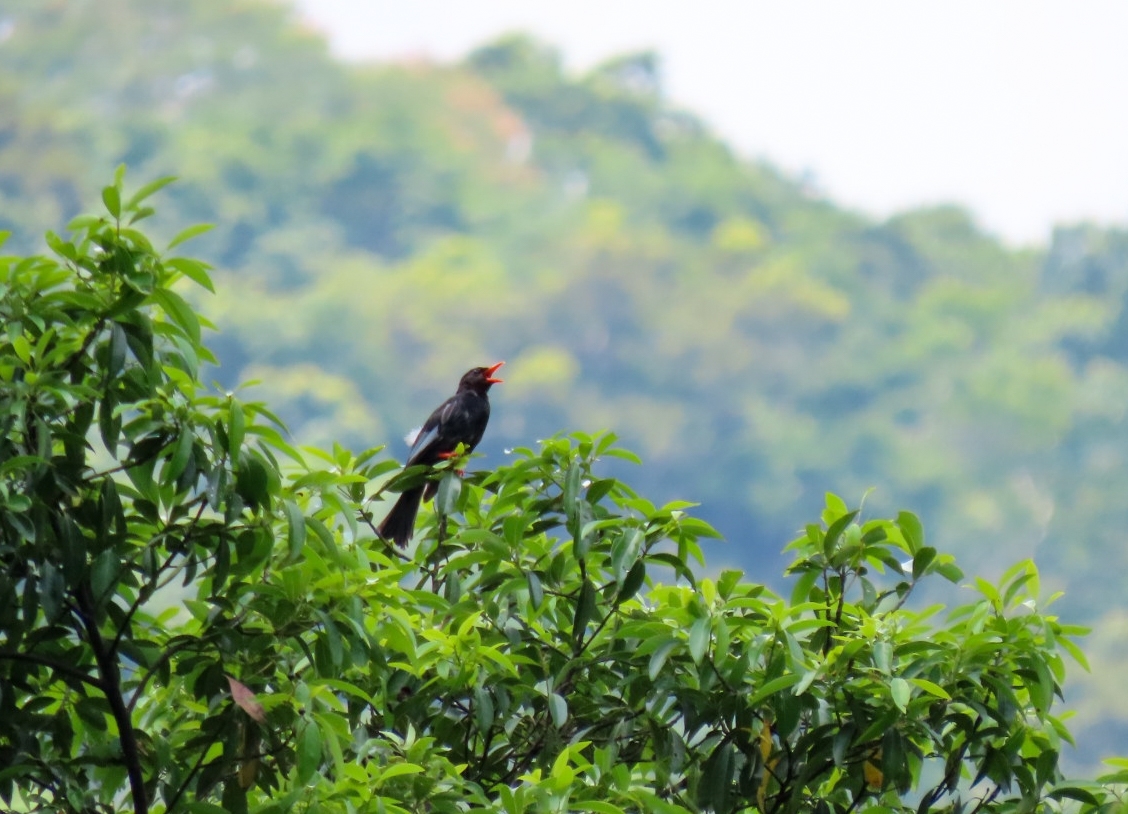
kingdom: Animalia
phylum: Chordata
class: Aves
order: Passeriformes
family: Pycnonotidae
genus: Hypsipetes
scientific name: Hypsipetes leucocephalus
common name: Black bulbul
